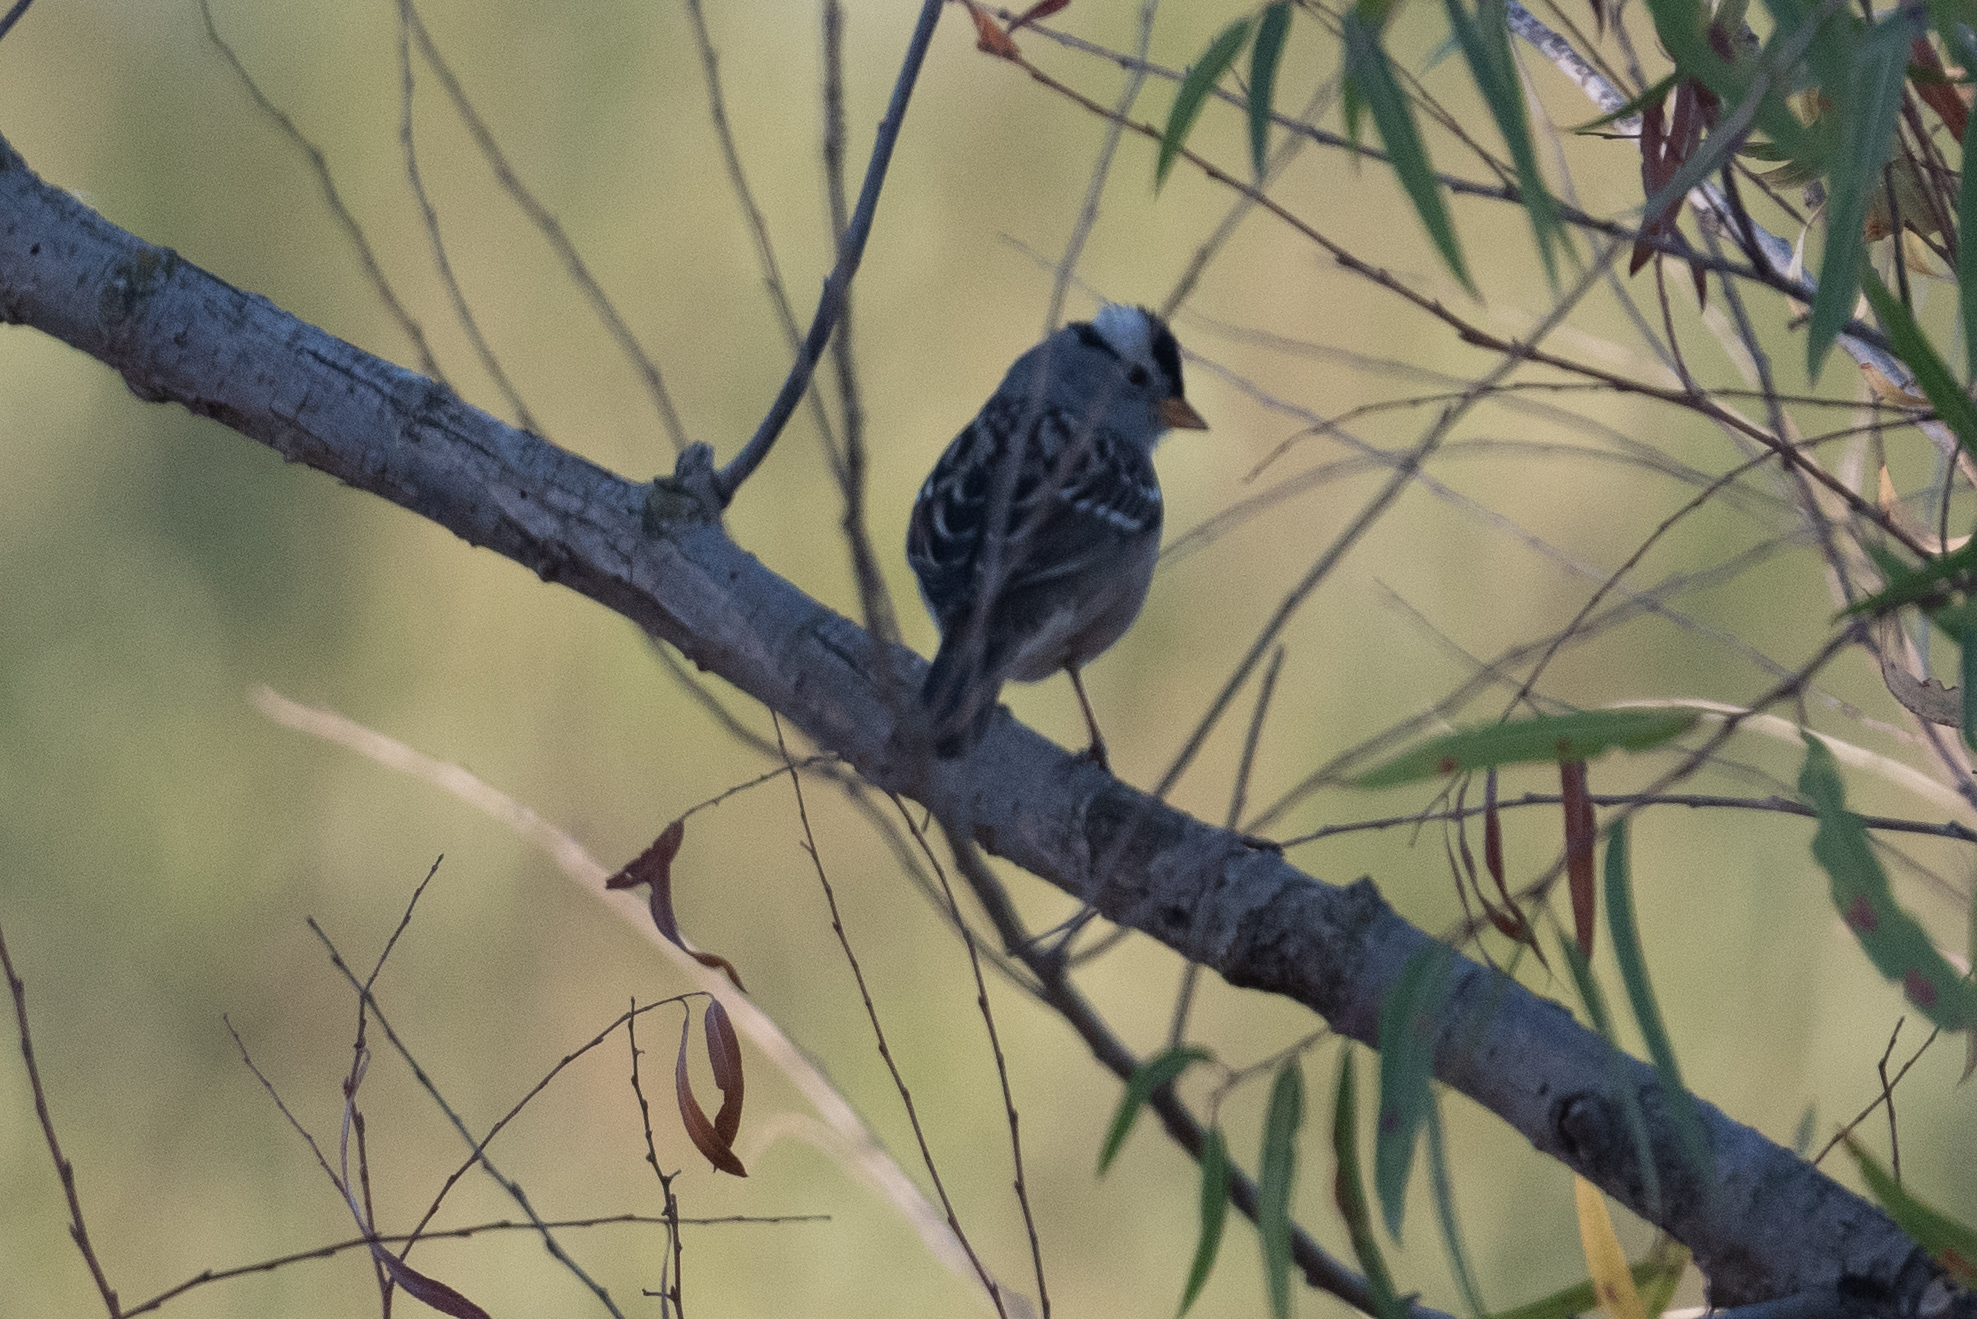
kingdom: Animalia
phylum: Chordata
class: Aves
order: Passeriformes
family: Passerellidae
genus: Zonotrichia
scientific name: Zonotrichia leucophrys
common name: White-crowned sparrow
